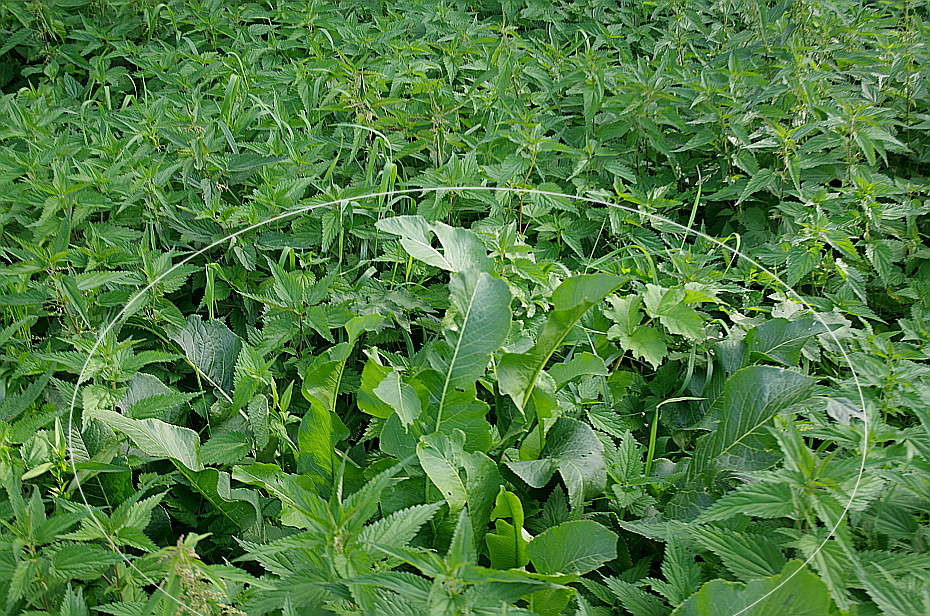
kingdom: Plantae
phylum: Tracheophyta
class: Magnoliopsida
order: Brassicales
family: Brassicaceae
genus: Armoracia
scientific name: Armoracia rusticana
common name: Horseradish
